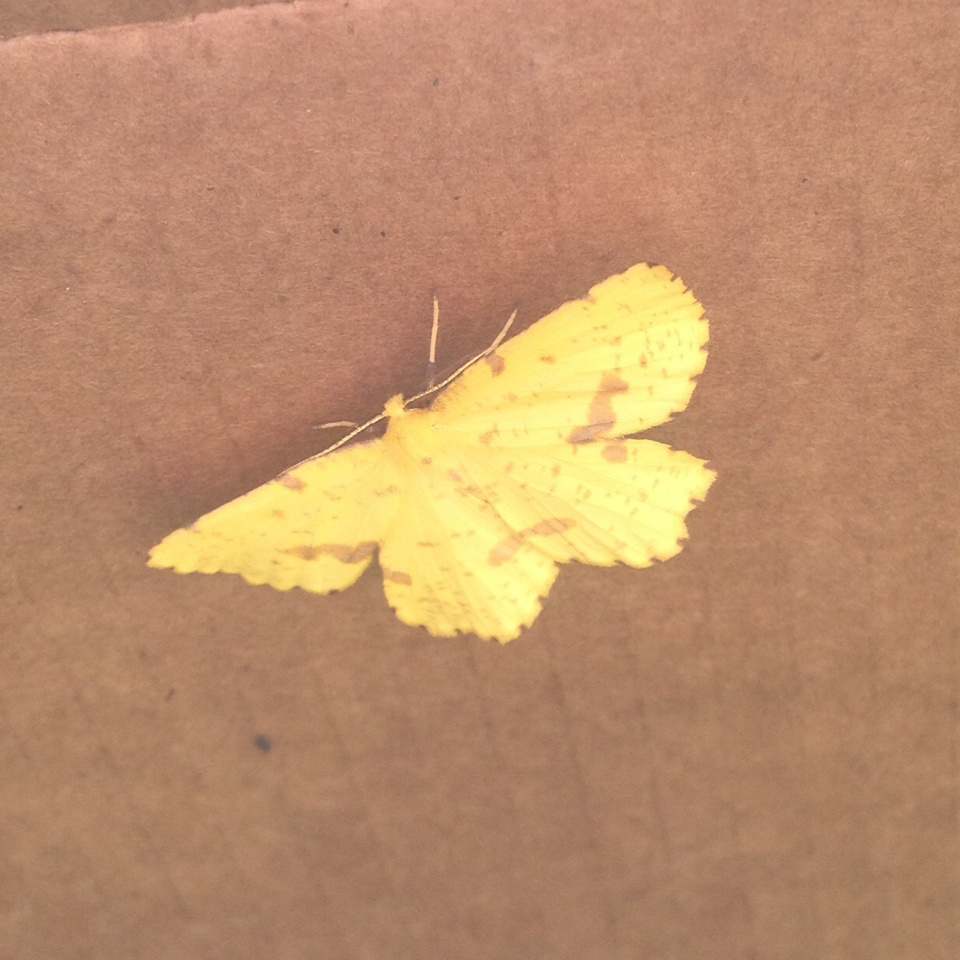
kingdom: Animalia
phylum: Arthropoda
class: Insecta
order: Lepidoptera
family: Geometridae
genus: Xanthotype
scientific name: Xanthotype
